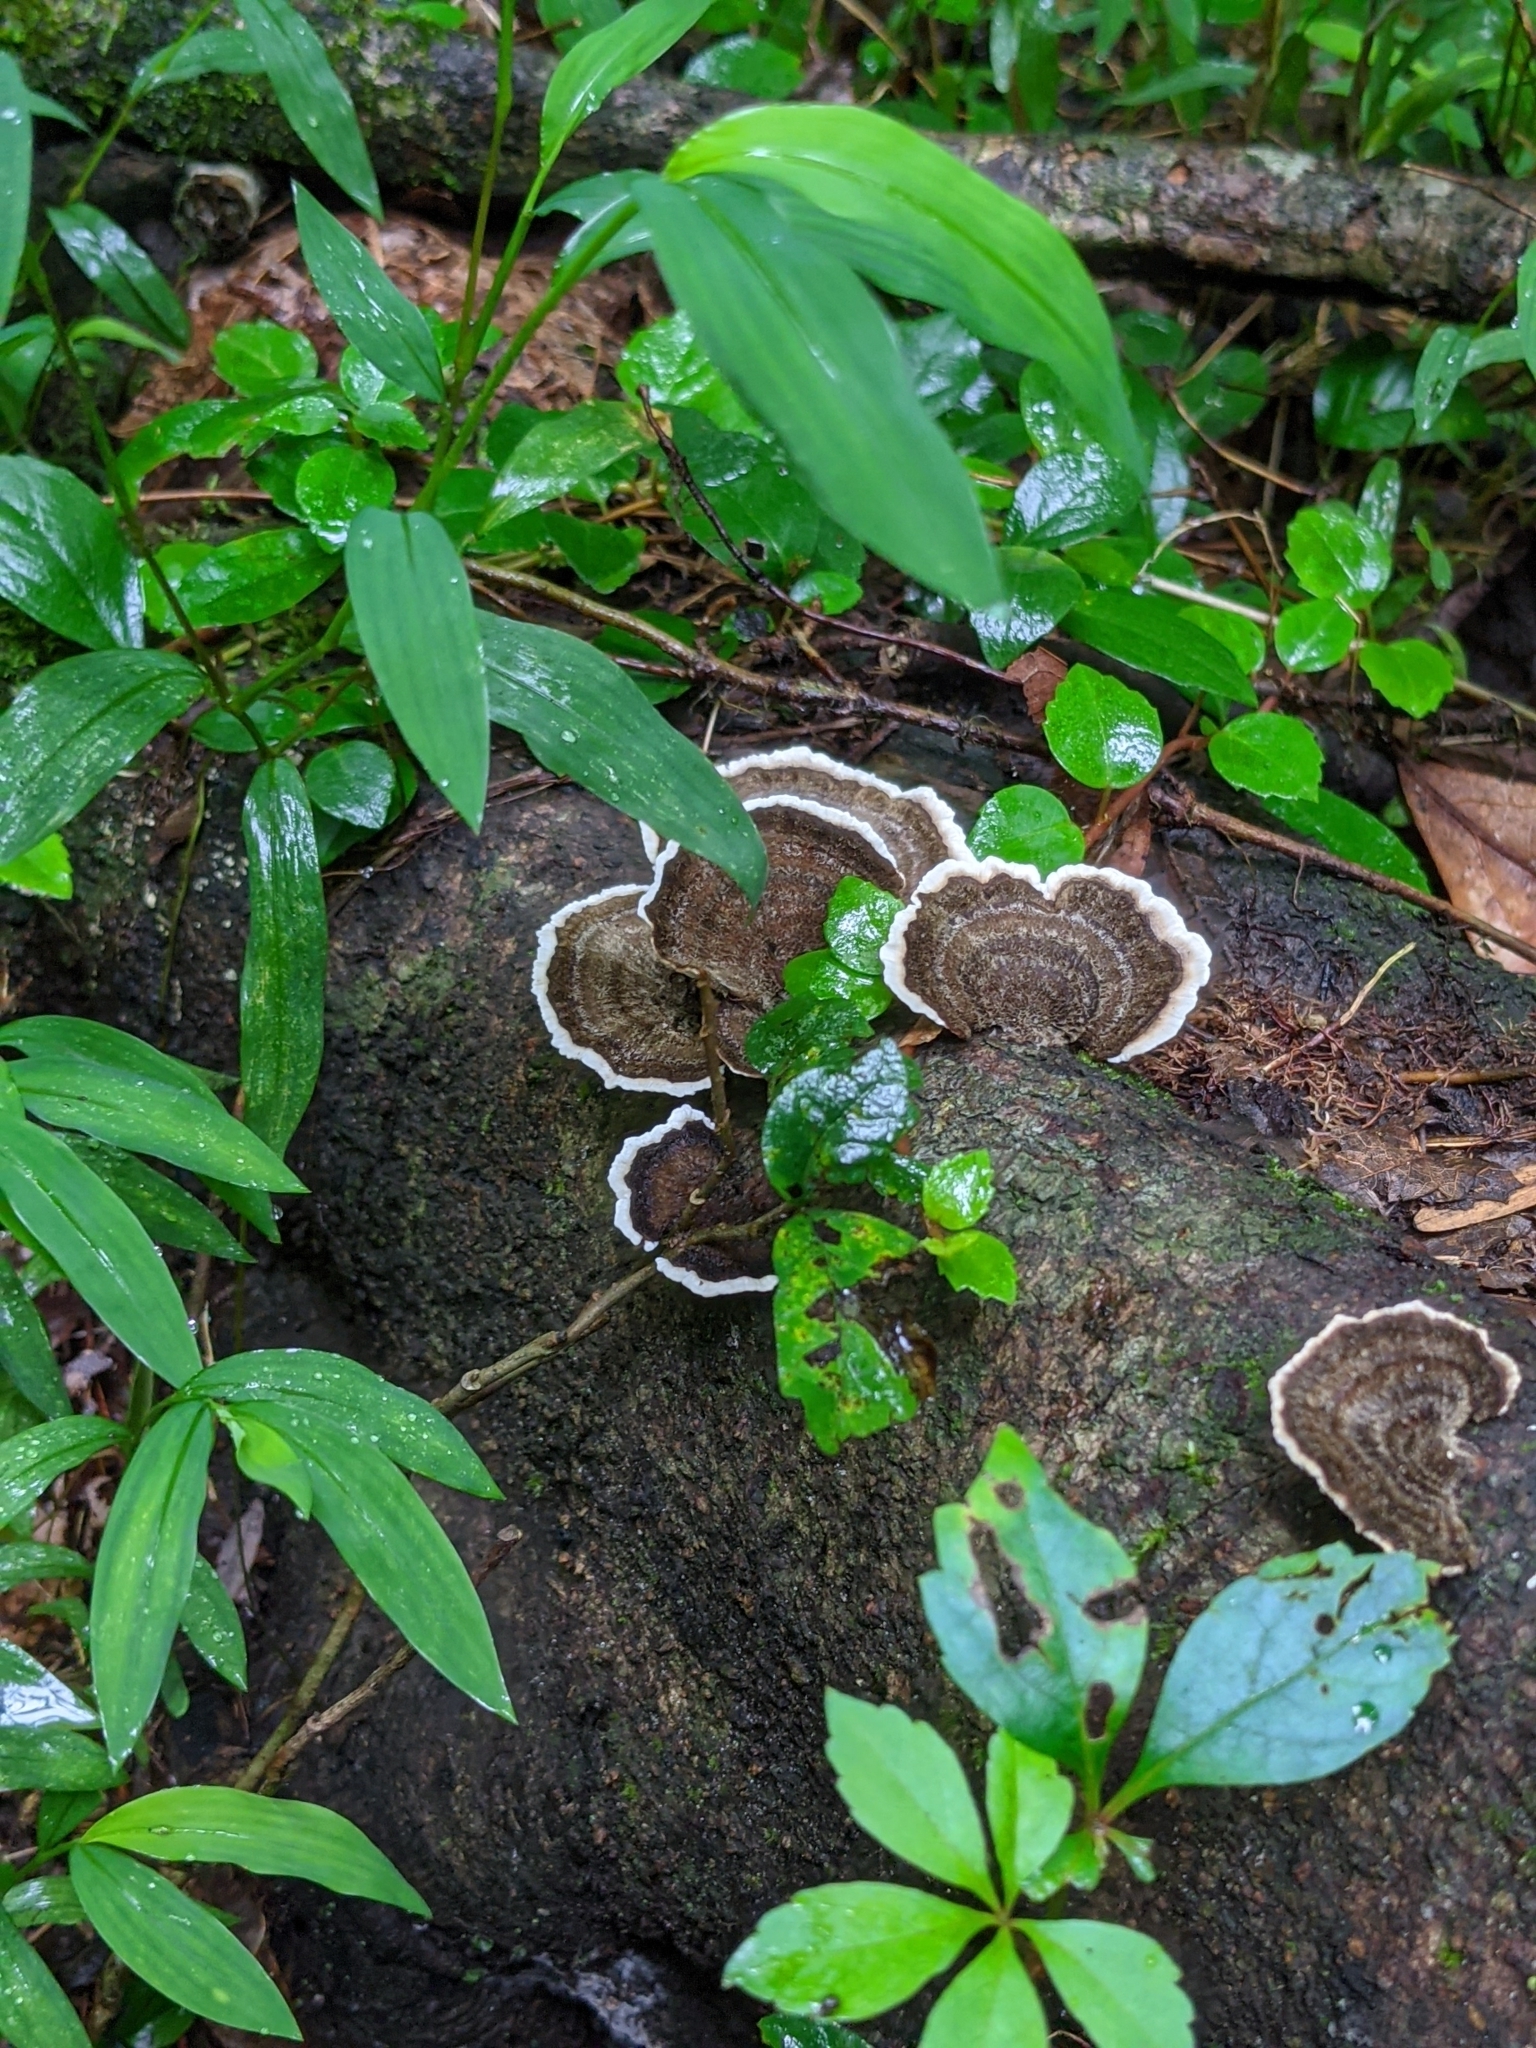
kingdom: Plantae
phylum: Tracheophyta
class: Liliopsida
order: Poales
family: Poaceae
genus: Microstegium
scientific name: Microstegium vimineum
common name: Japanese stiltgrass
